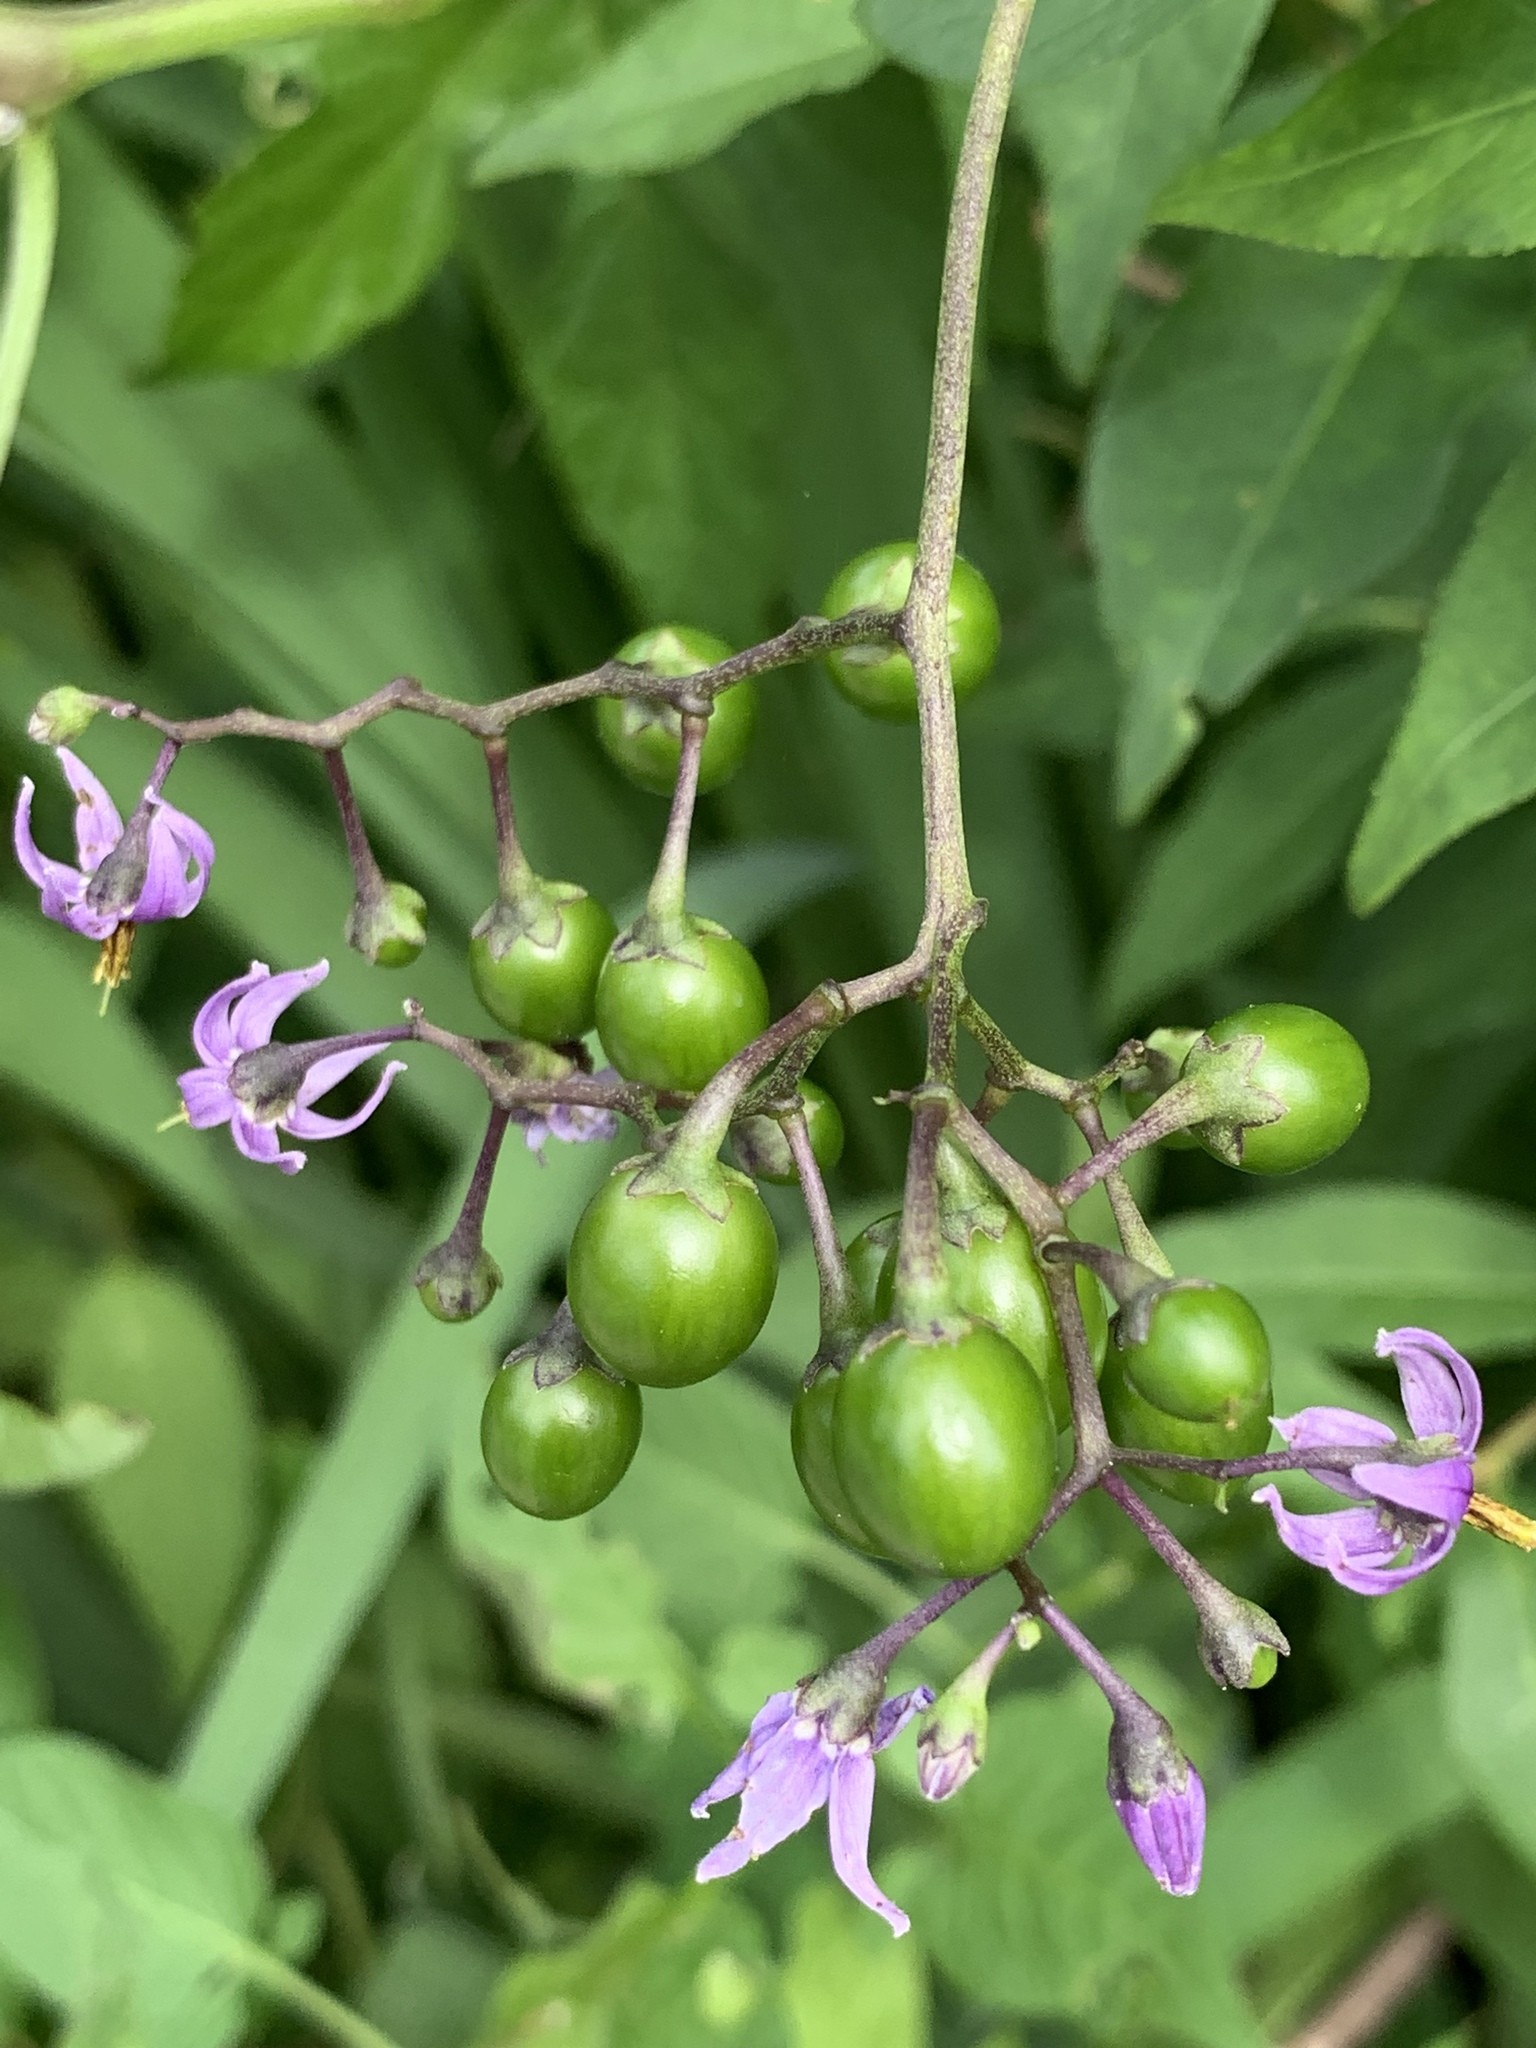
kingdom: Plantae
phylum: Tracheophyta
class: Magnoliopsida
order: Solanales
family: Solanaceae
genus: Solanum
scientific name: Solanum dulcamara
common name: Climbing nightshade
